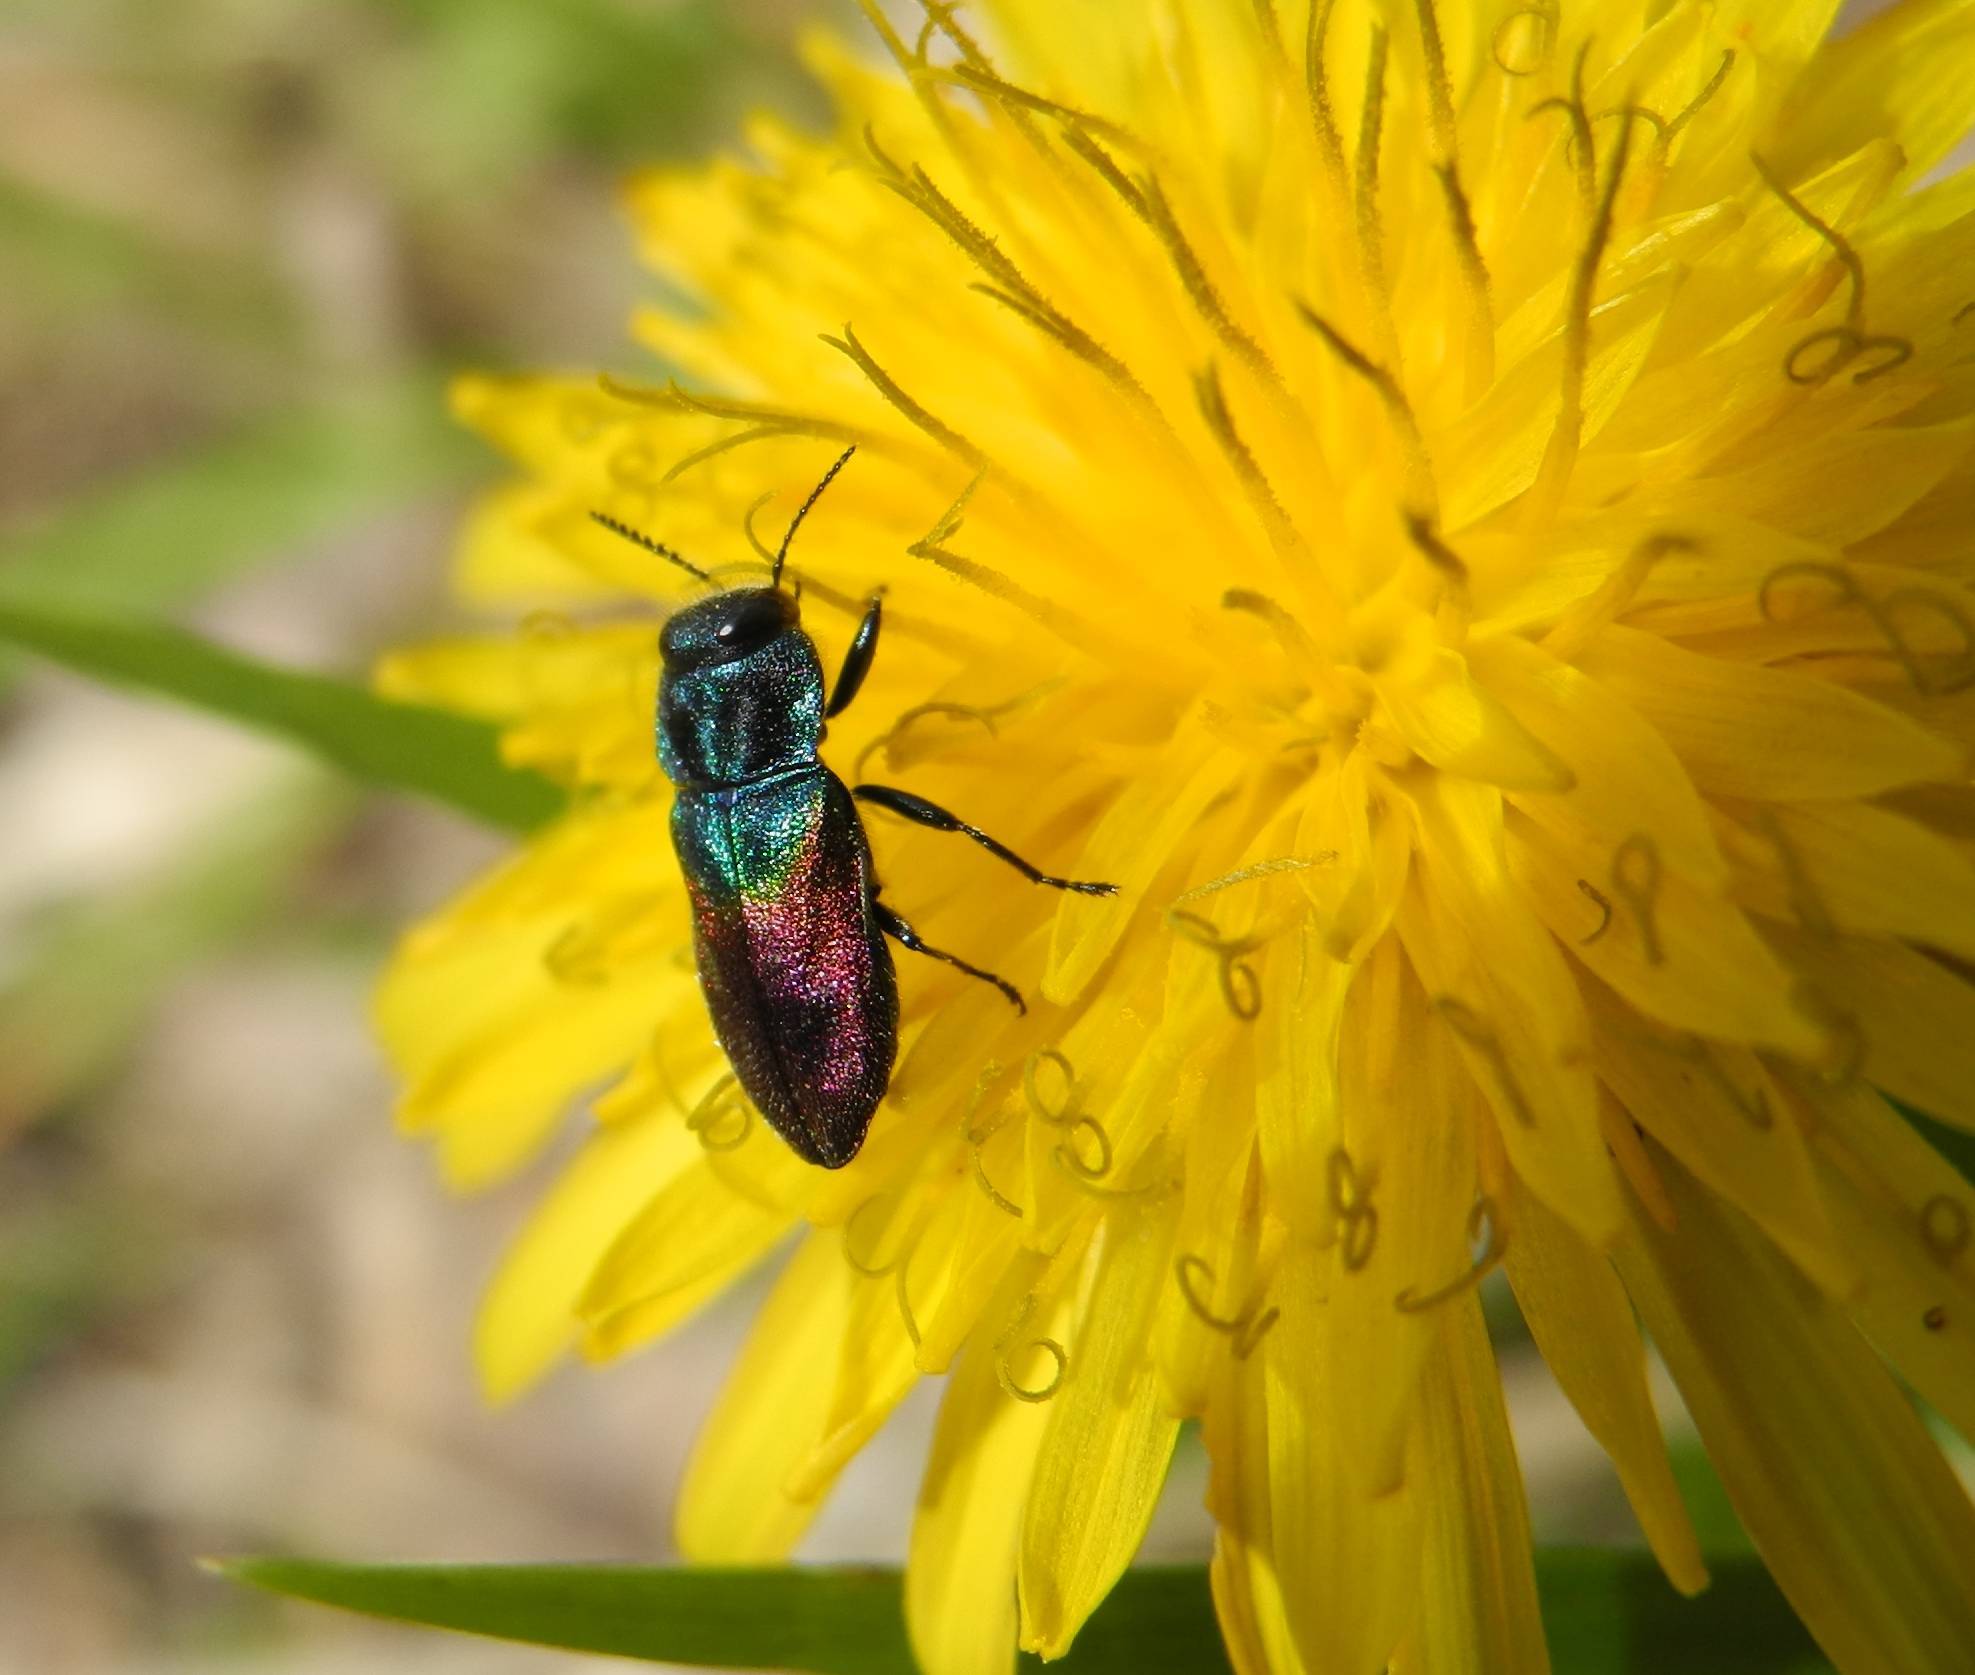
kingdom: Animalia
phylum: Arthropoda
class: Insecta
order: Coleoptera
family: Buprestidae
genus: Anthaxia
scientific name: Anthaxia salicis
